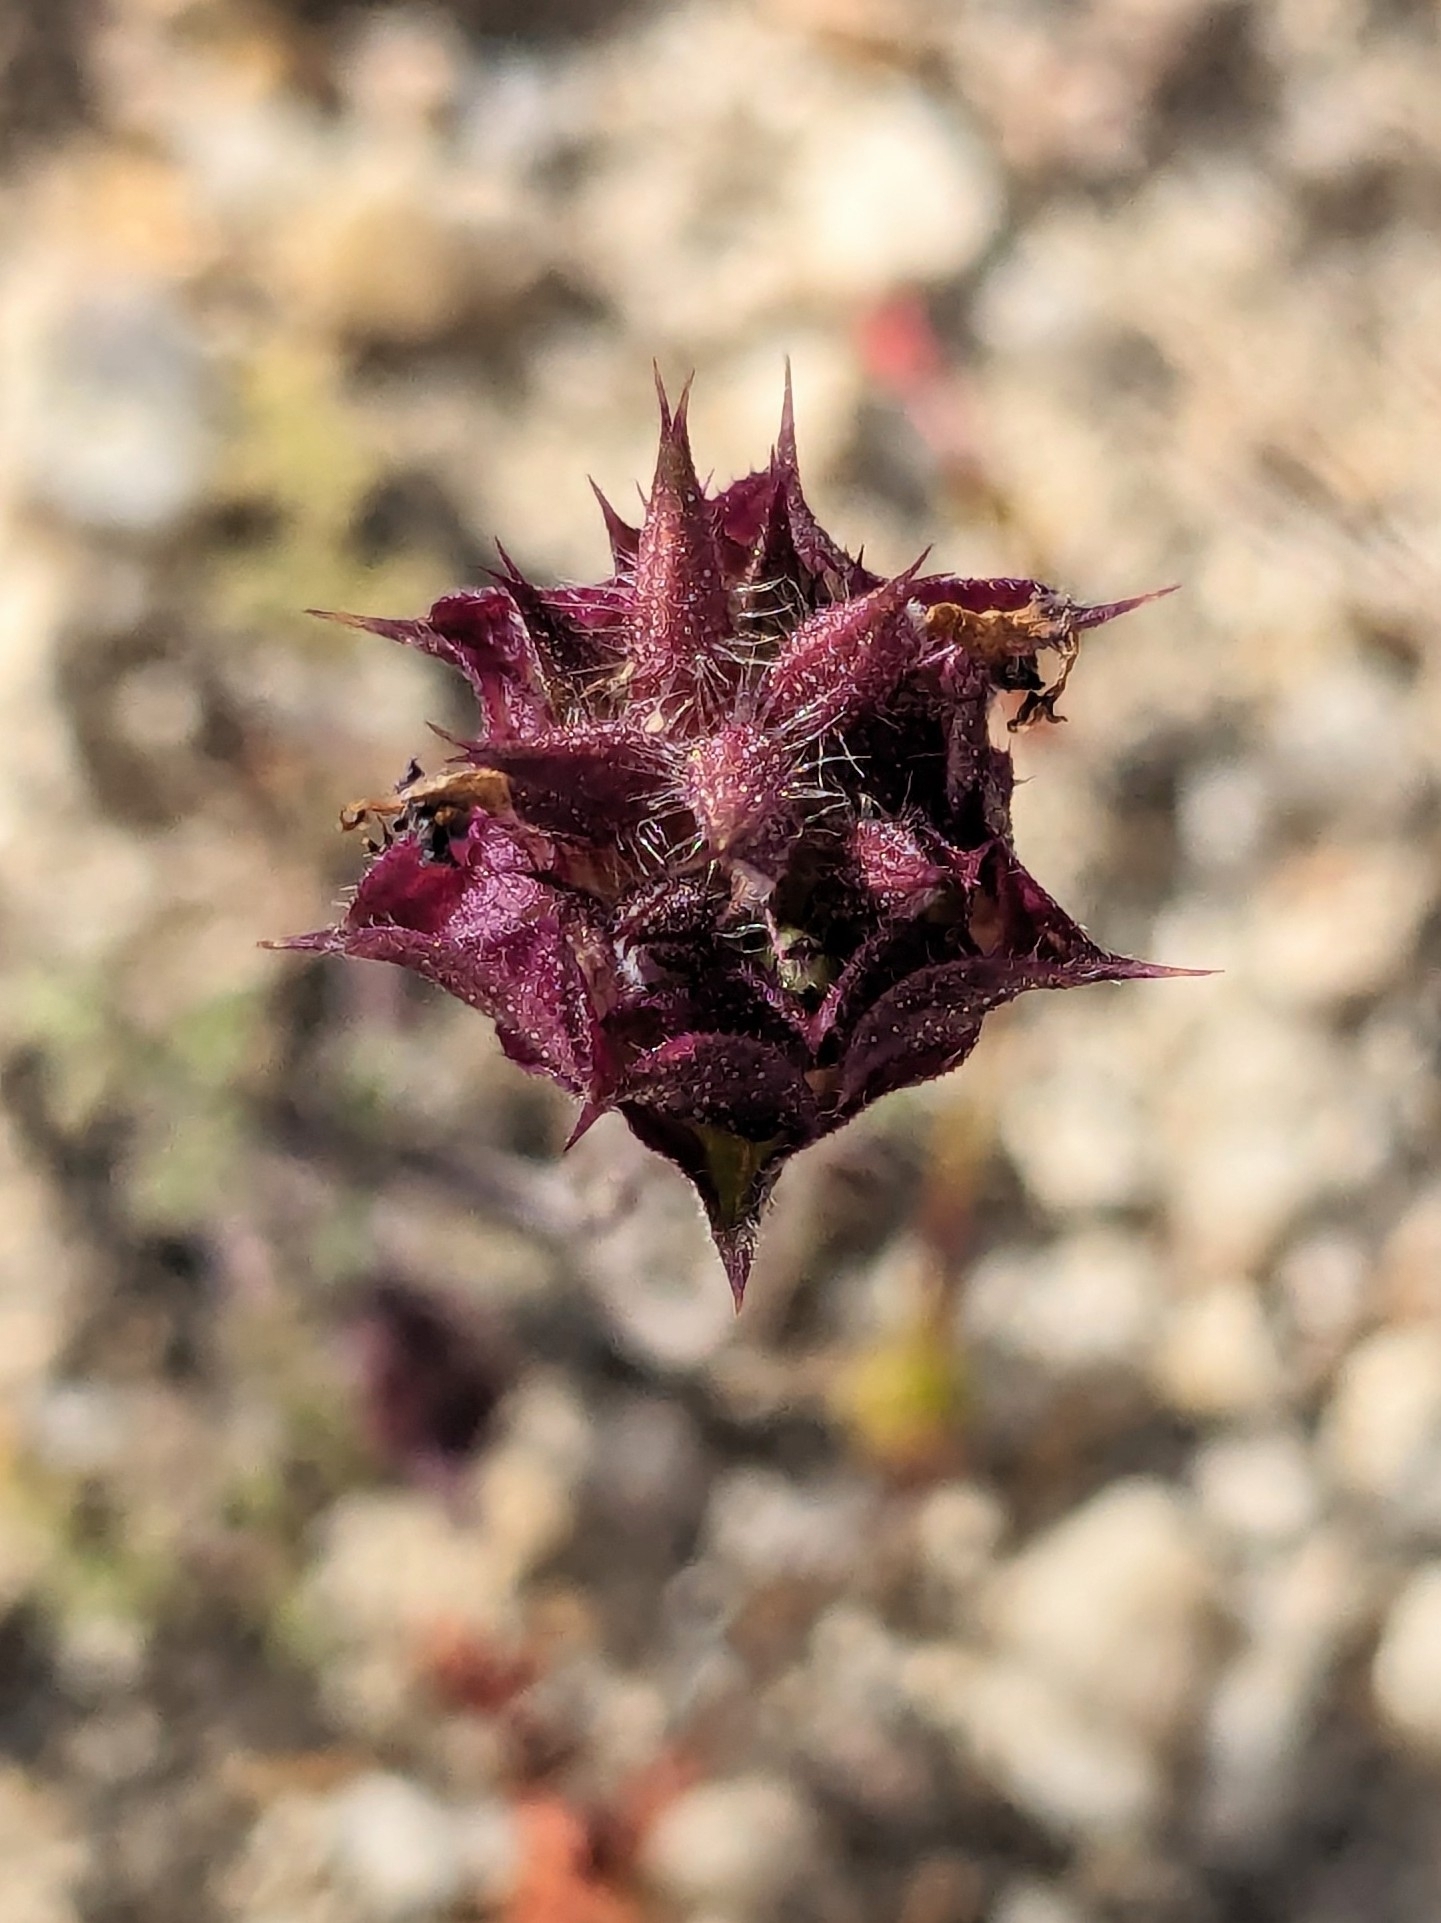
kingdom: Plantae
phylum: Tracheophyta
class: Magnoliopsida
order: Lamiales
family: Lamiaceae
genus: Salvia
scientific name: Salvia columbariae
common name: Chia
